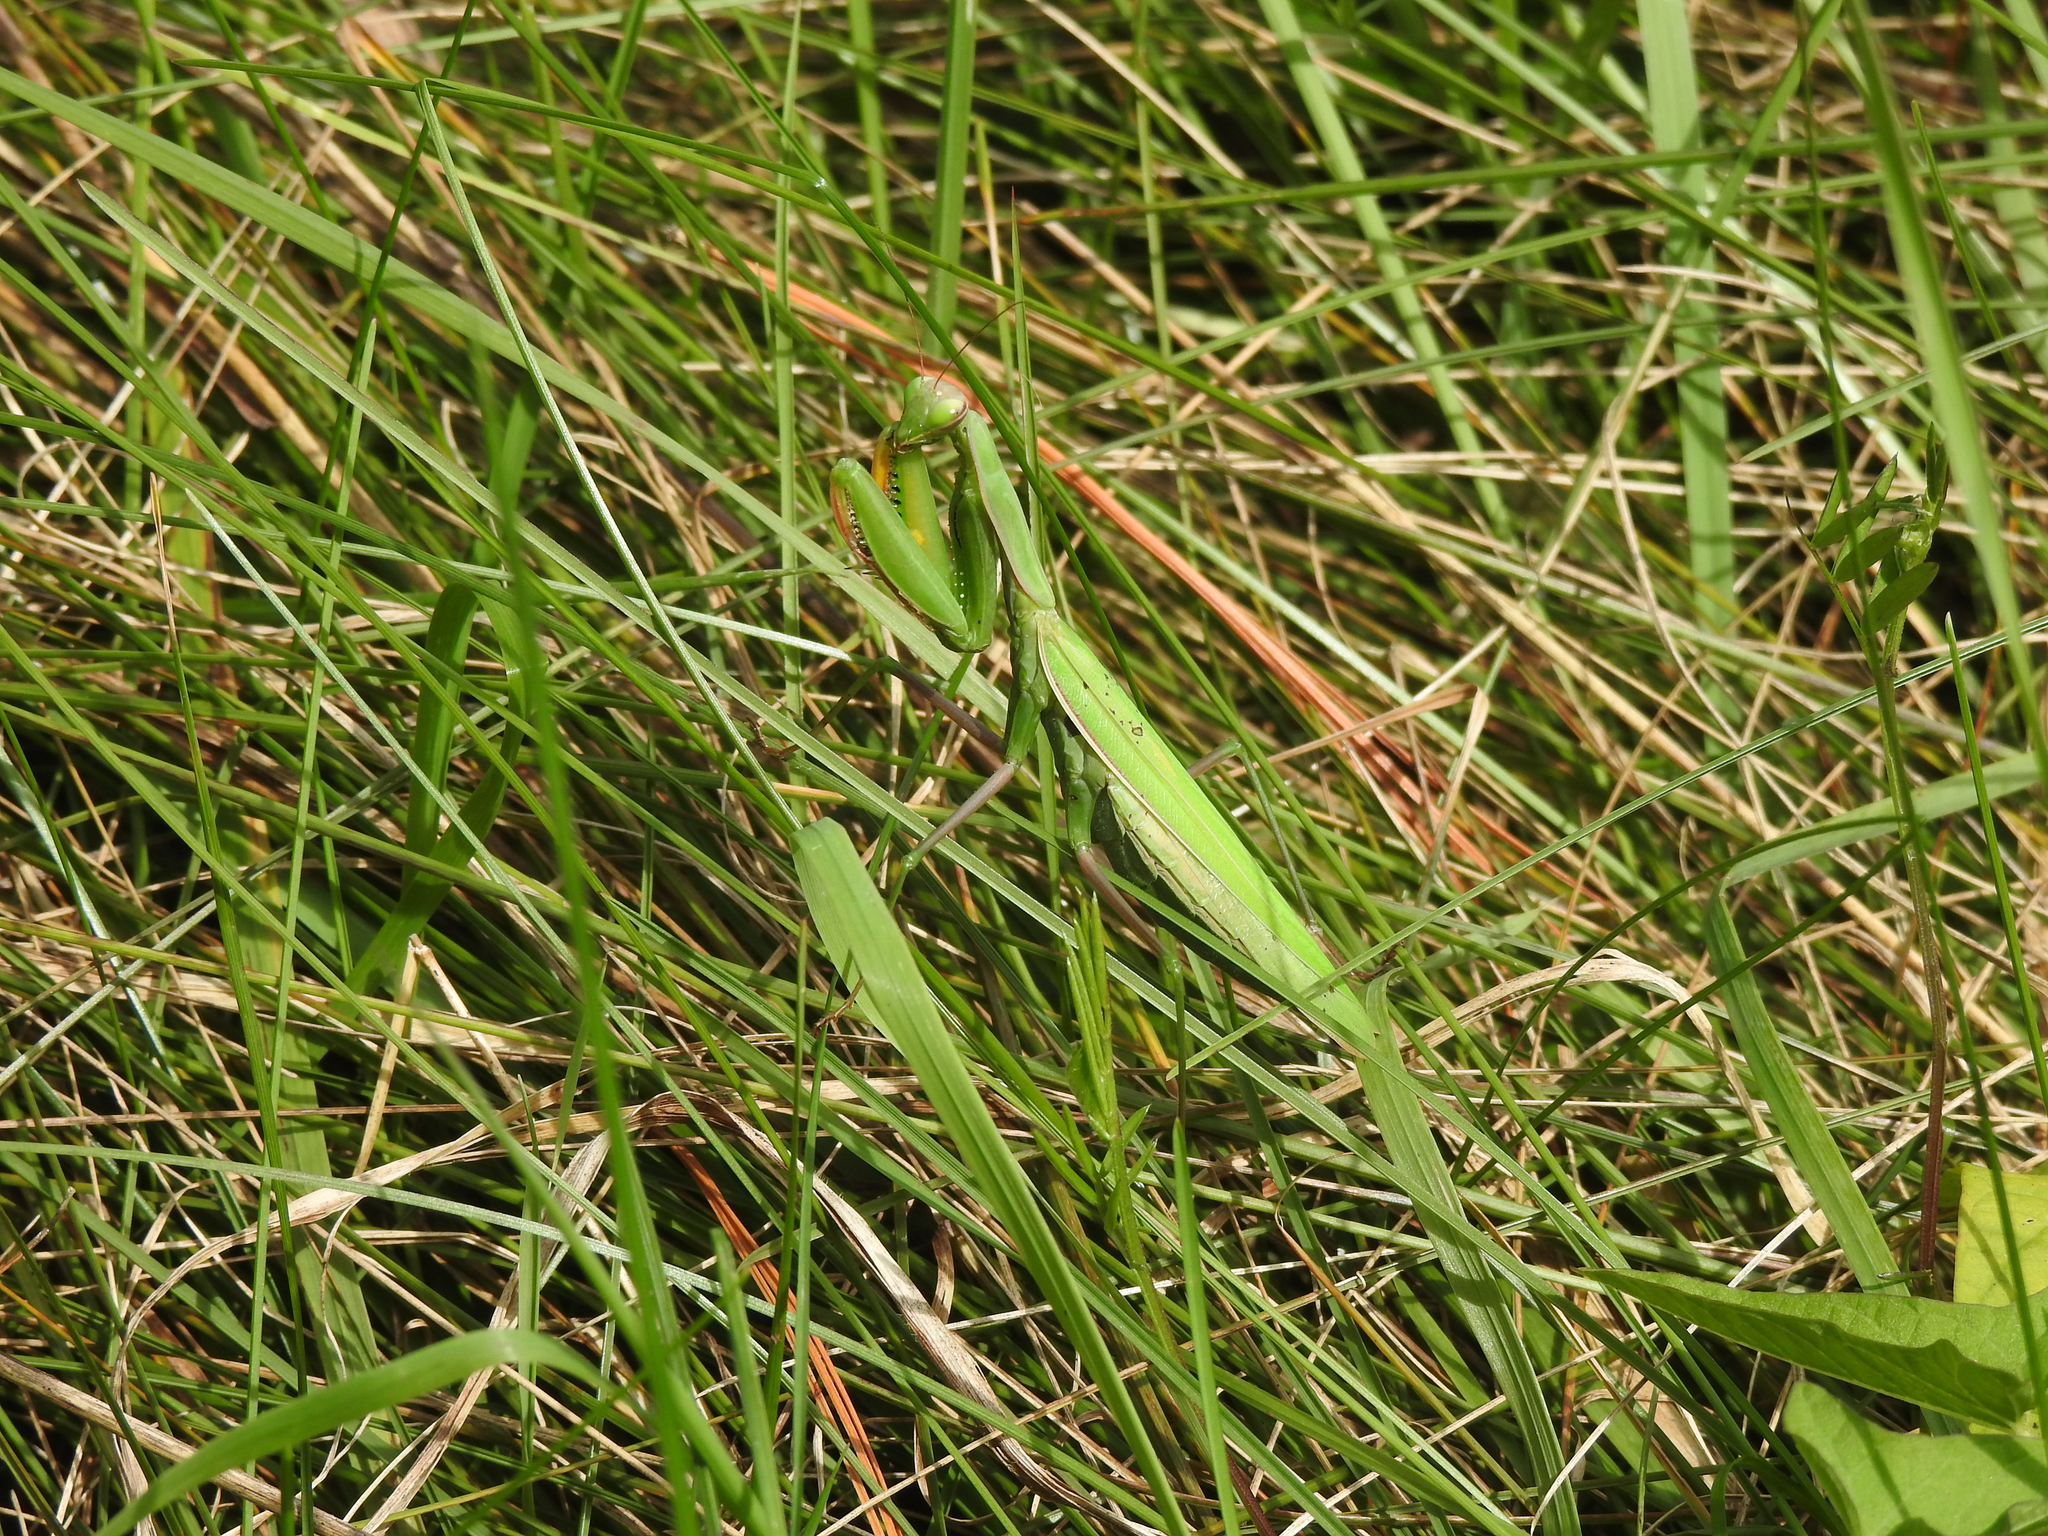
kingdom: Animalia
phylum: Arthropoda
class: Insecta
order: Mantodea
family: Mantidae
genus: Mantis
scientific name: Mantis religiosa
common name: Praying mantis
